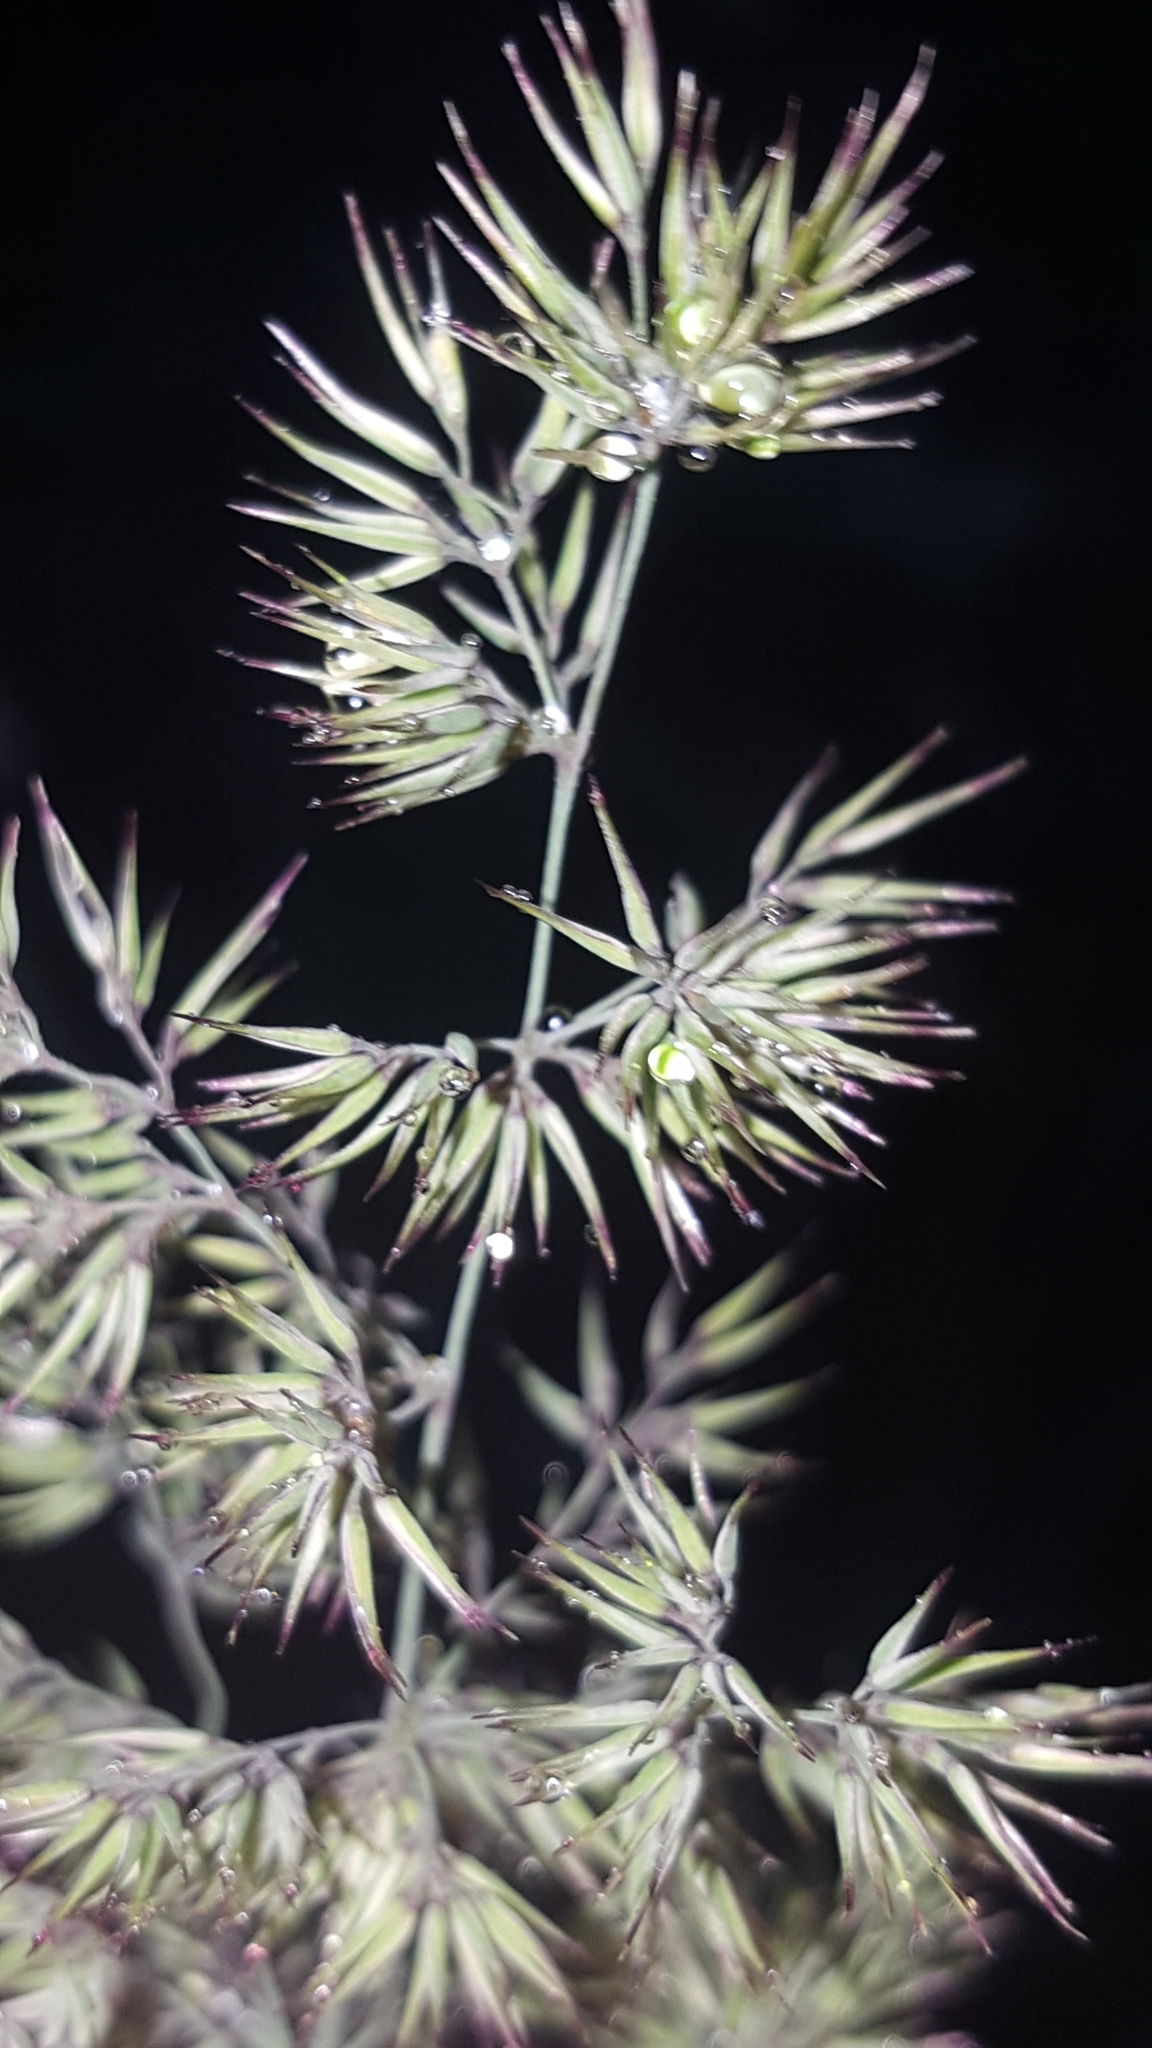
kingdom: Plantae
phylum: Tracheophyta
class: Liliopsida
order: Poales
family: Poaceae
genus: Calamagrostis
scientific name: Calamagrostis epigejos
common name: Wood small-reed
